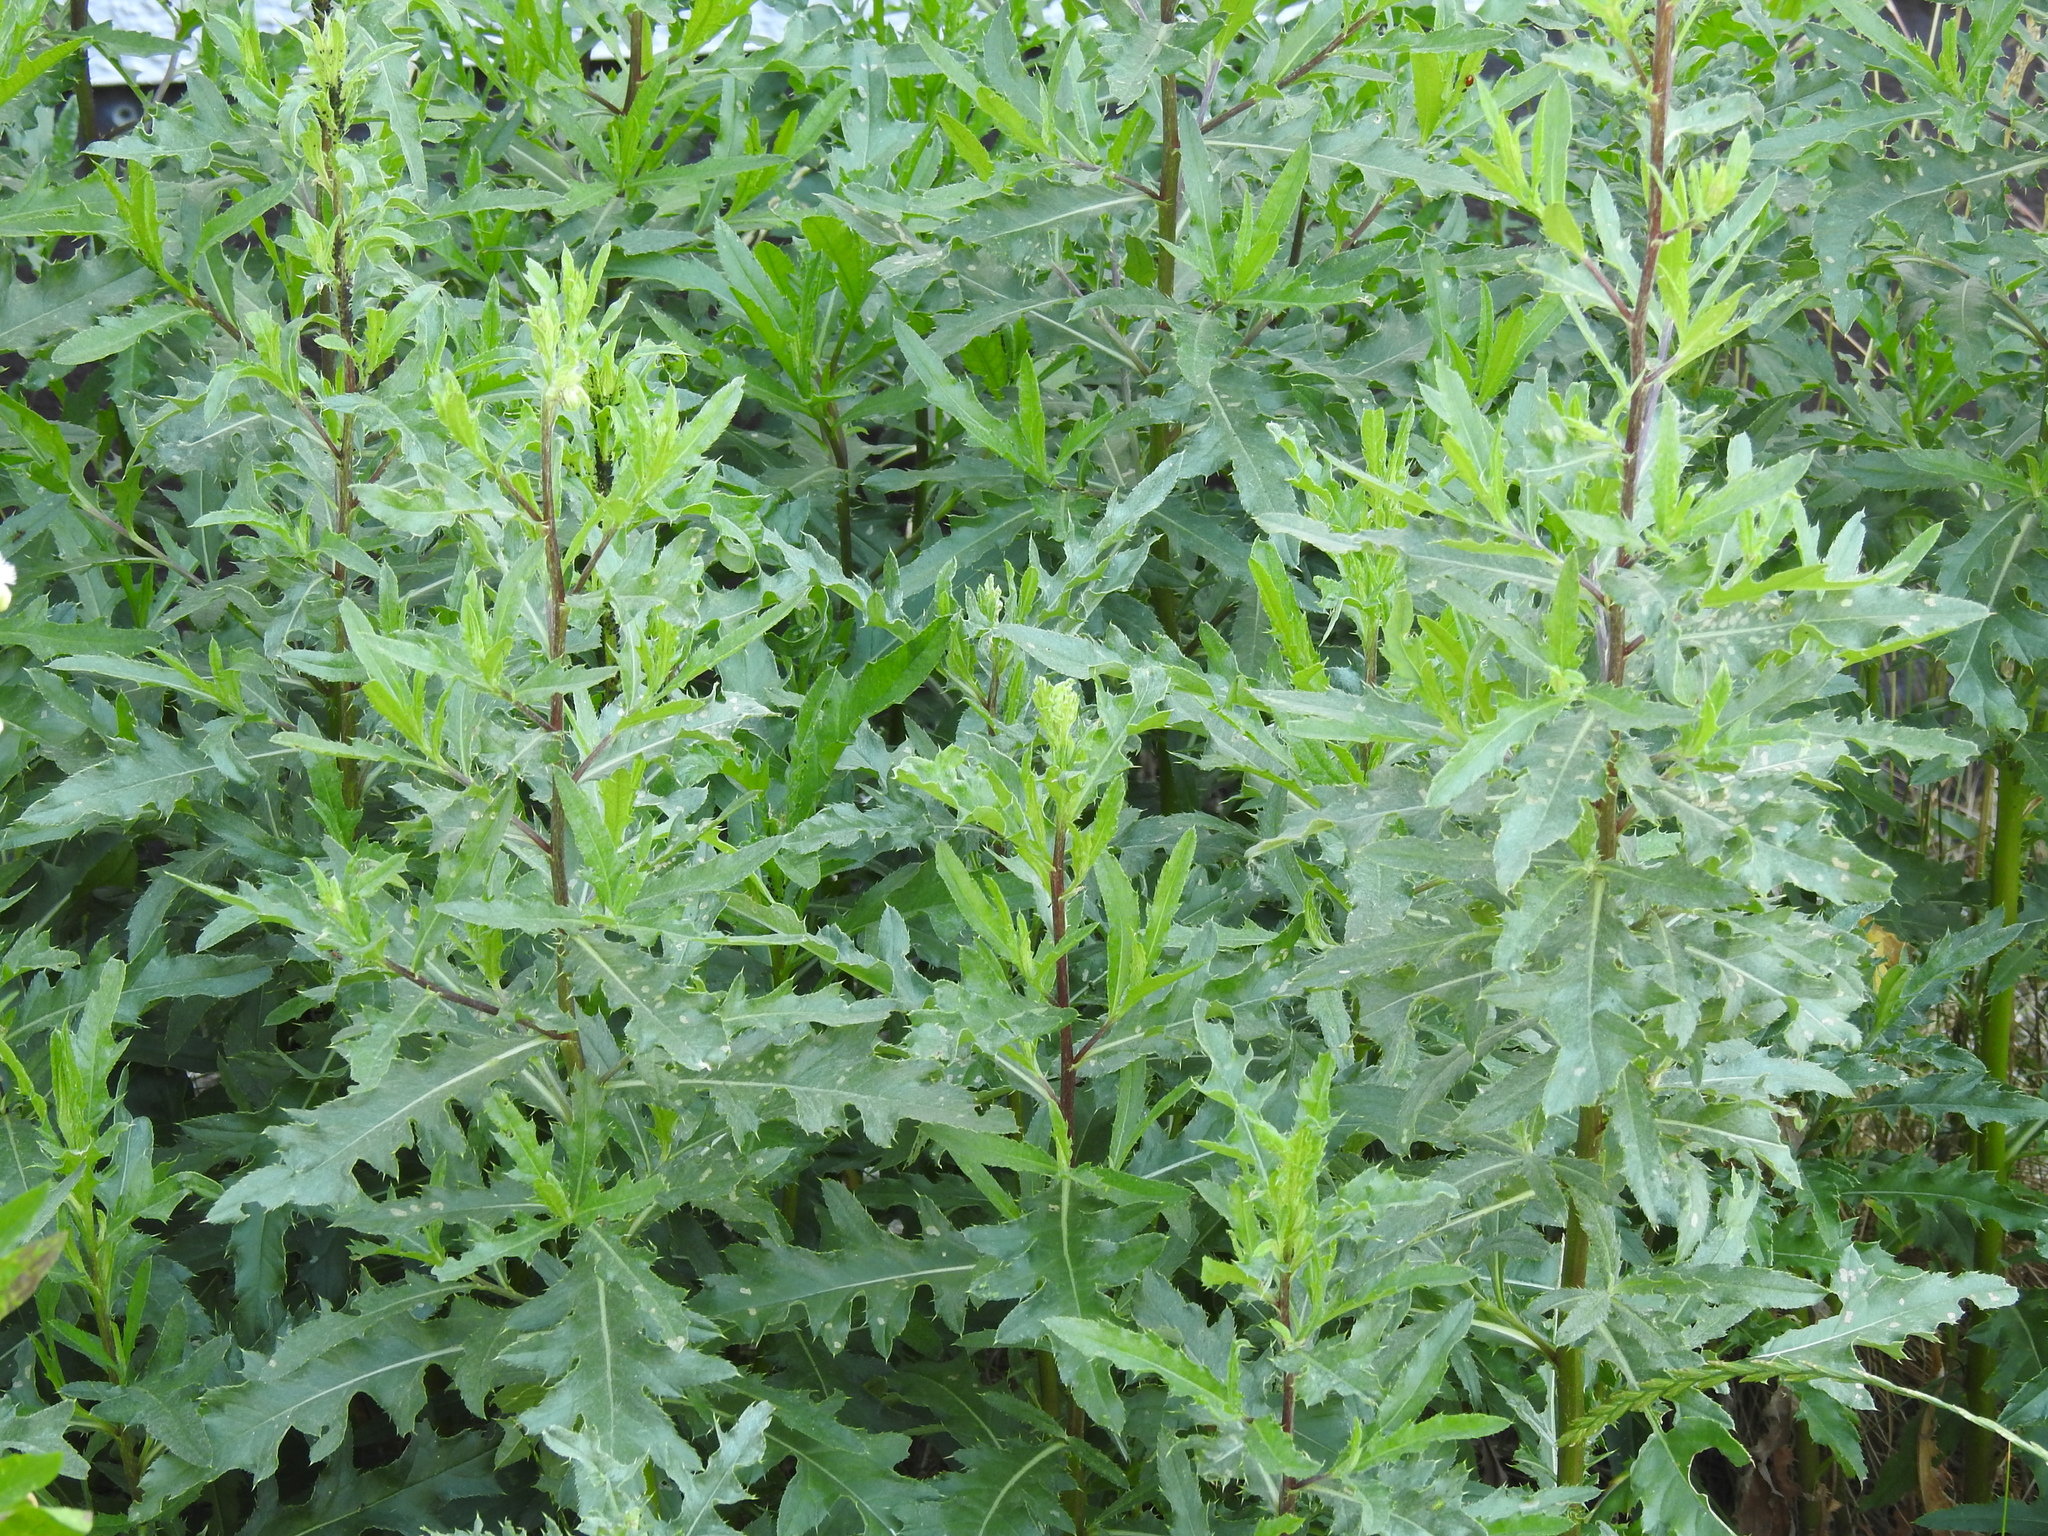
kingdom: Plantae
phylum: Tracheophyta
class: Magnoliopsida
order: Asterales
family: Asteraceae
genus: Cirsium
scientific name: Cirsium arvense
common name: Creeping thistle
